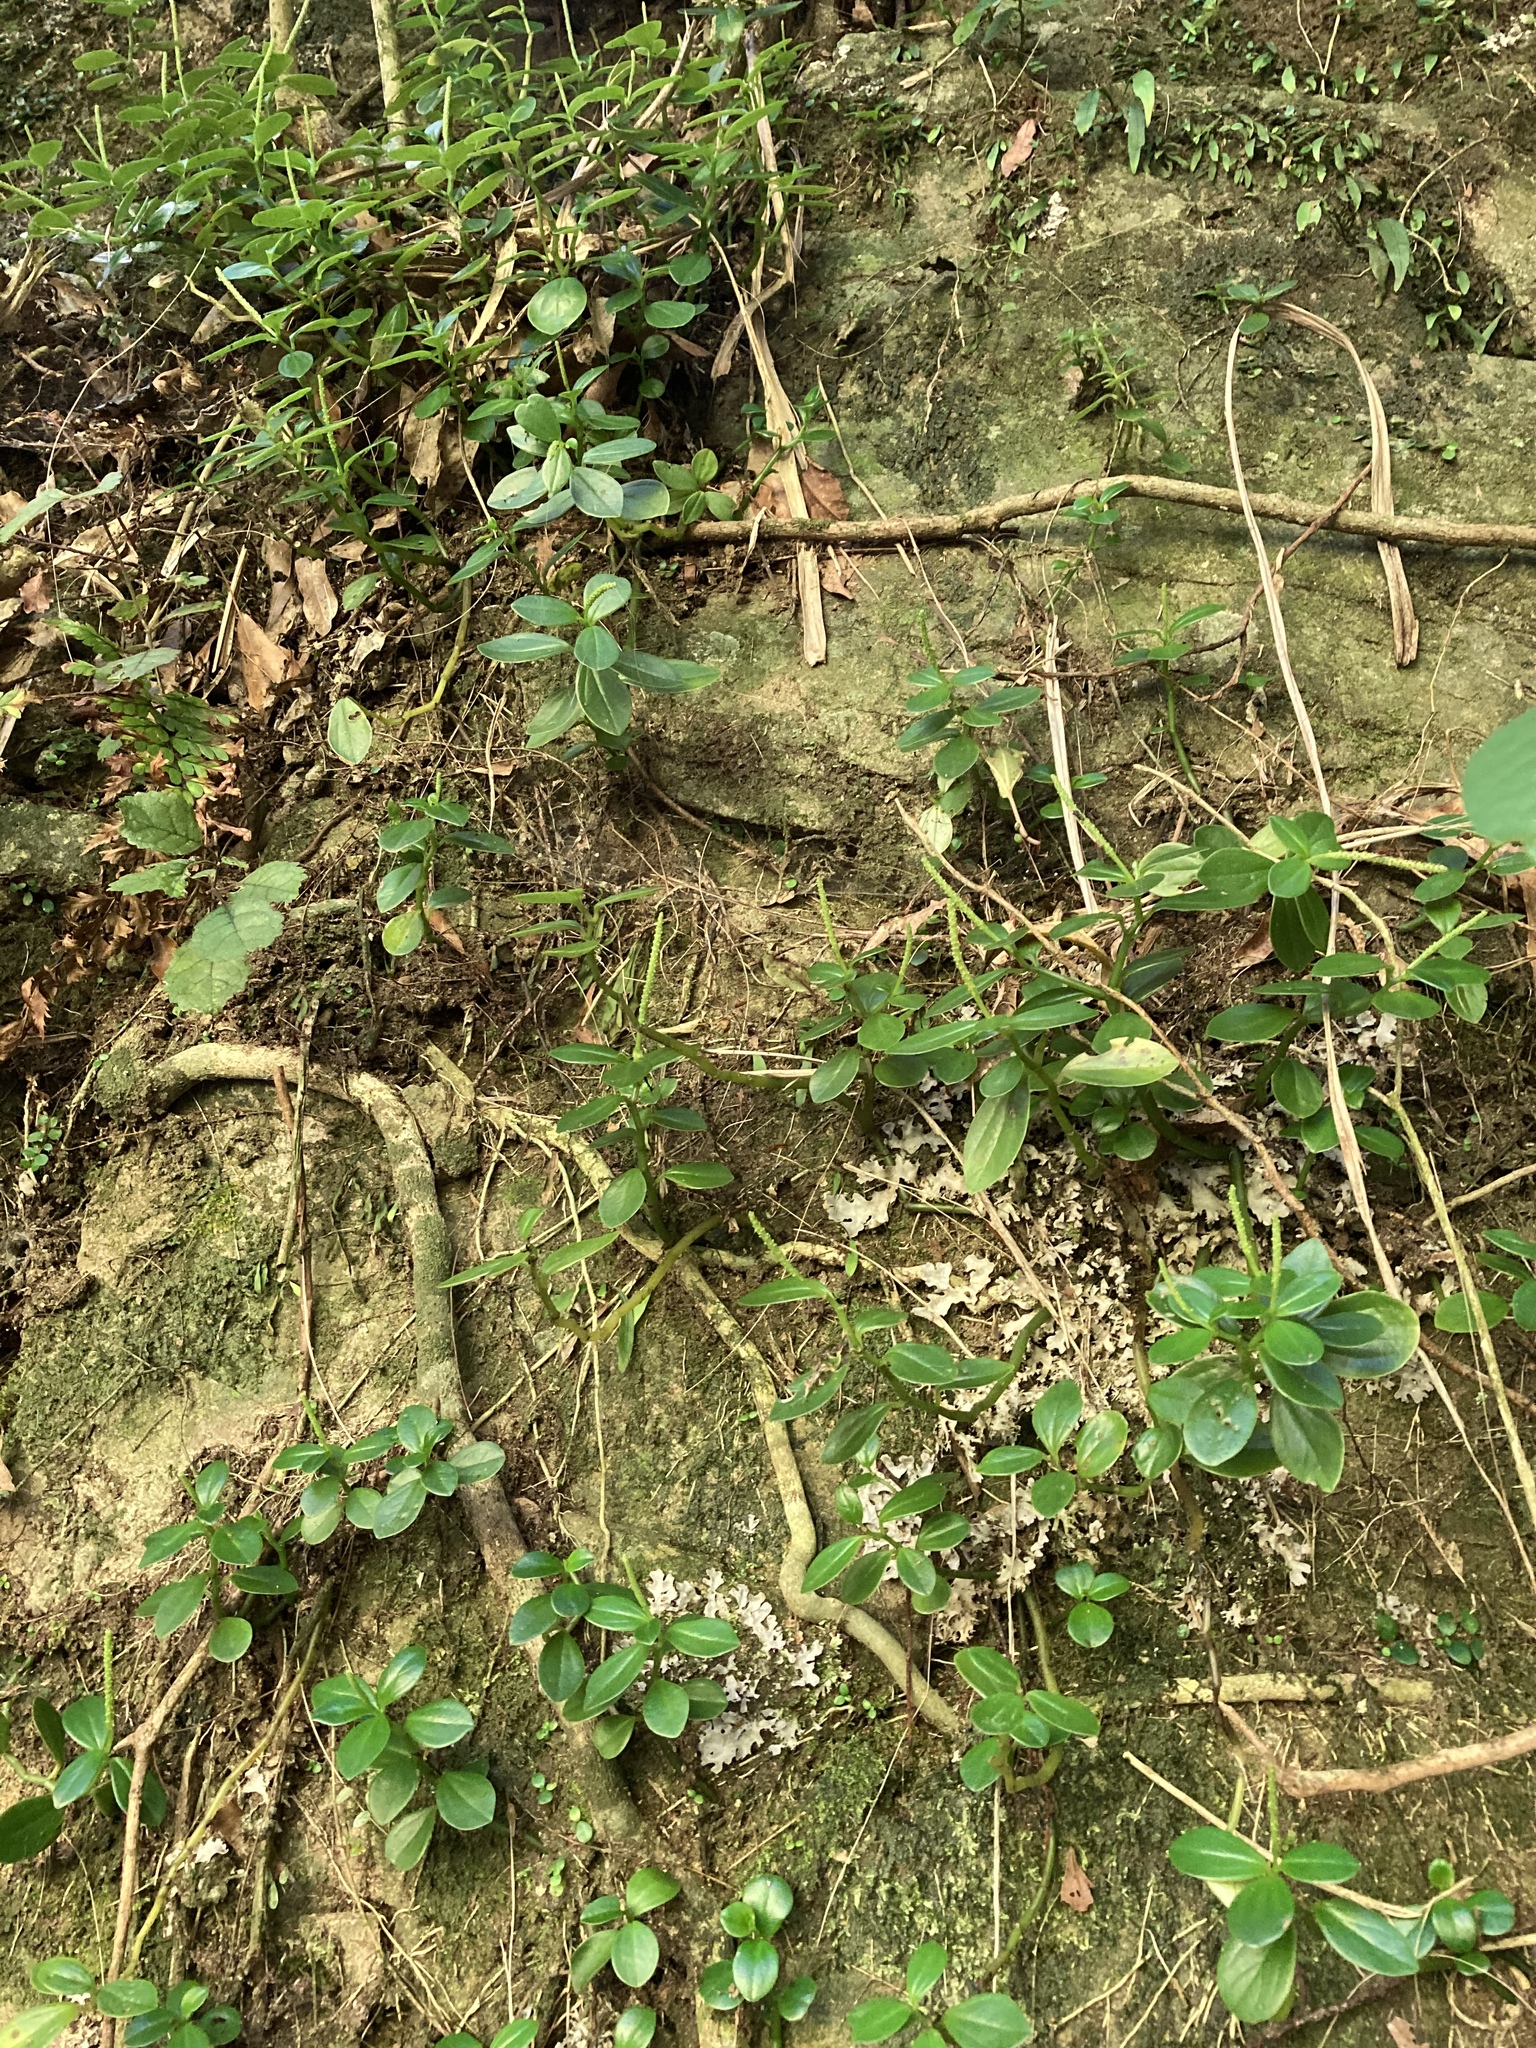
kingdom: Plantae
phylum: Tracheophyta
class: Magnoliopsida
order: Piperales
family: Piperaceae
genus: Peperomia
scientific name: Peperomia urvilleana
